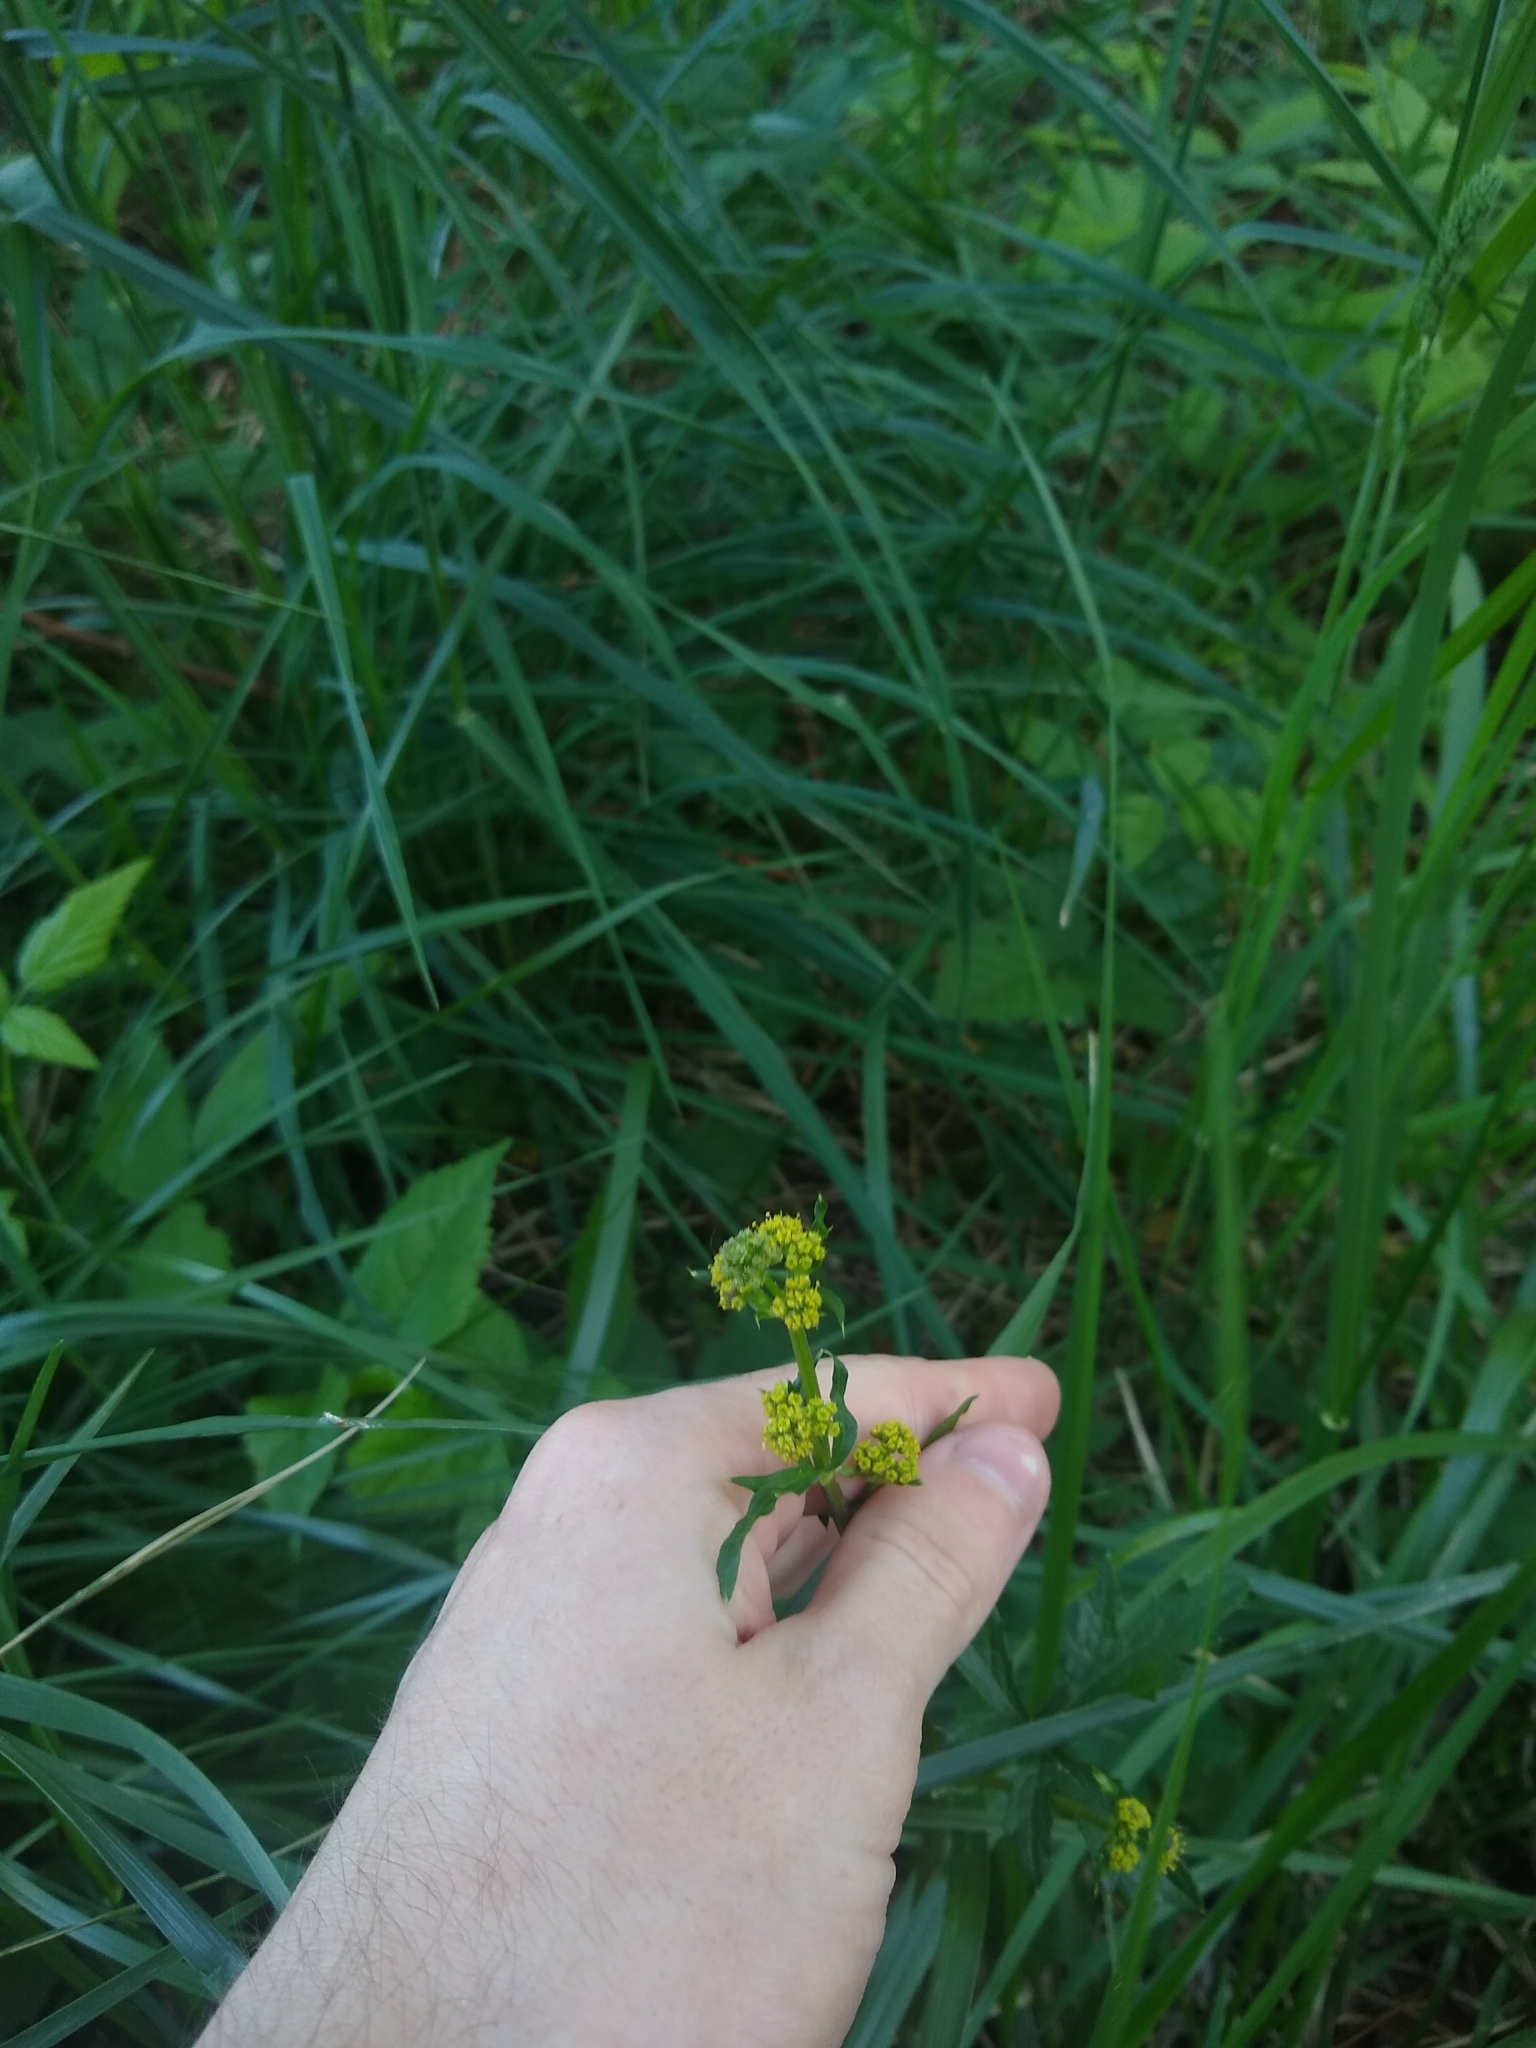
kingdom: Plantae
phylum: Tracheophyta
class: Magnoliopsida
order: Apiales
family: Apiaceae
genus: Sanicula
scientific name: Sanicula crassicaulis
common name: Western snakeroot
